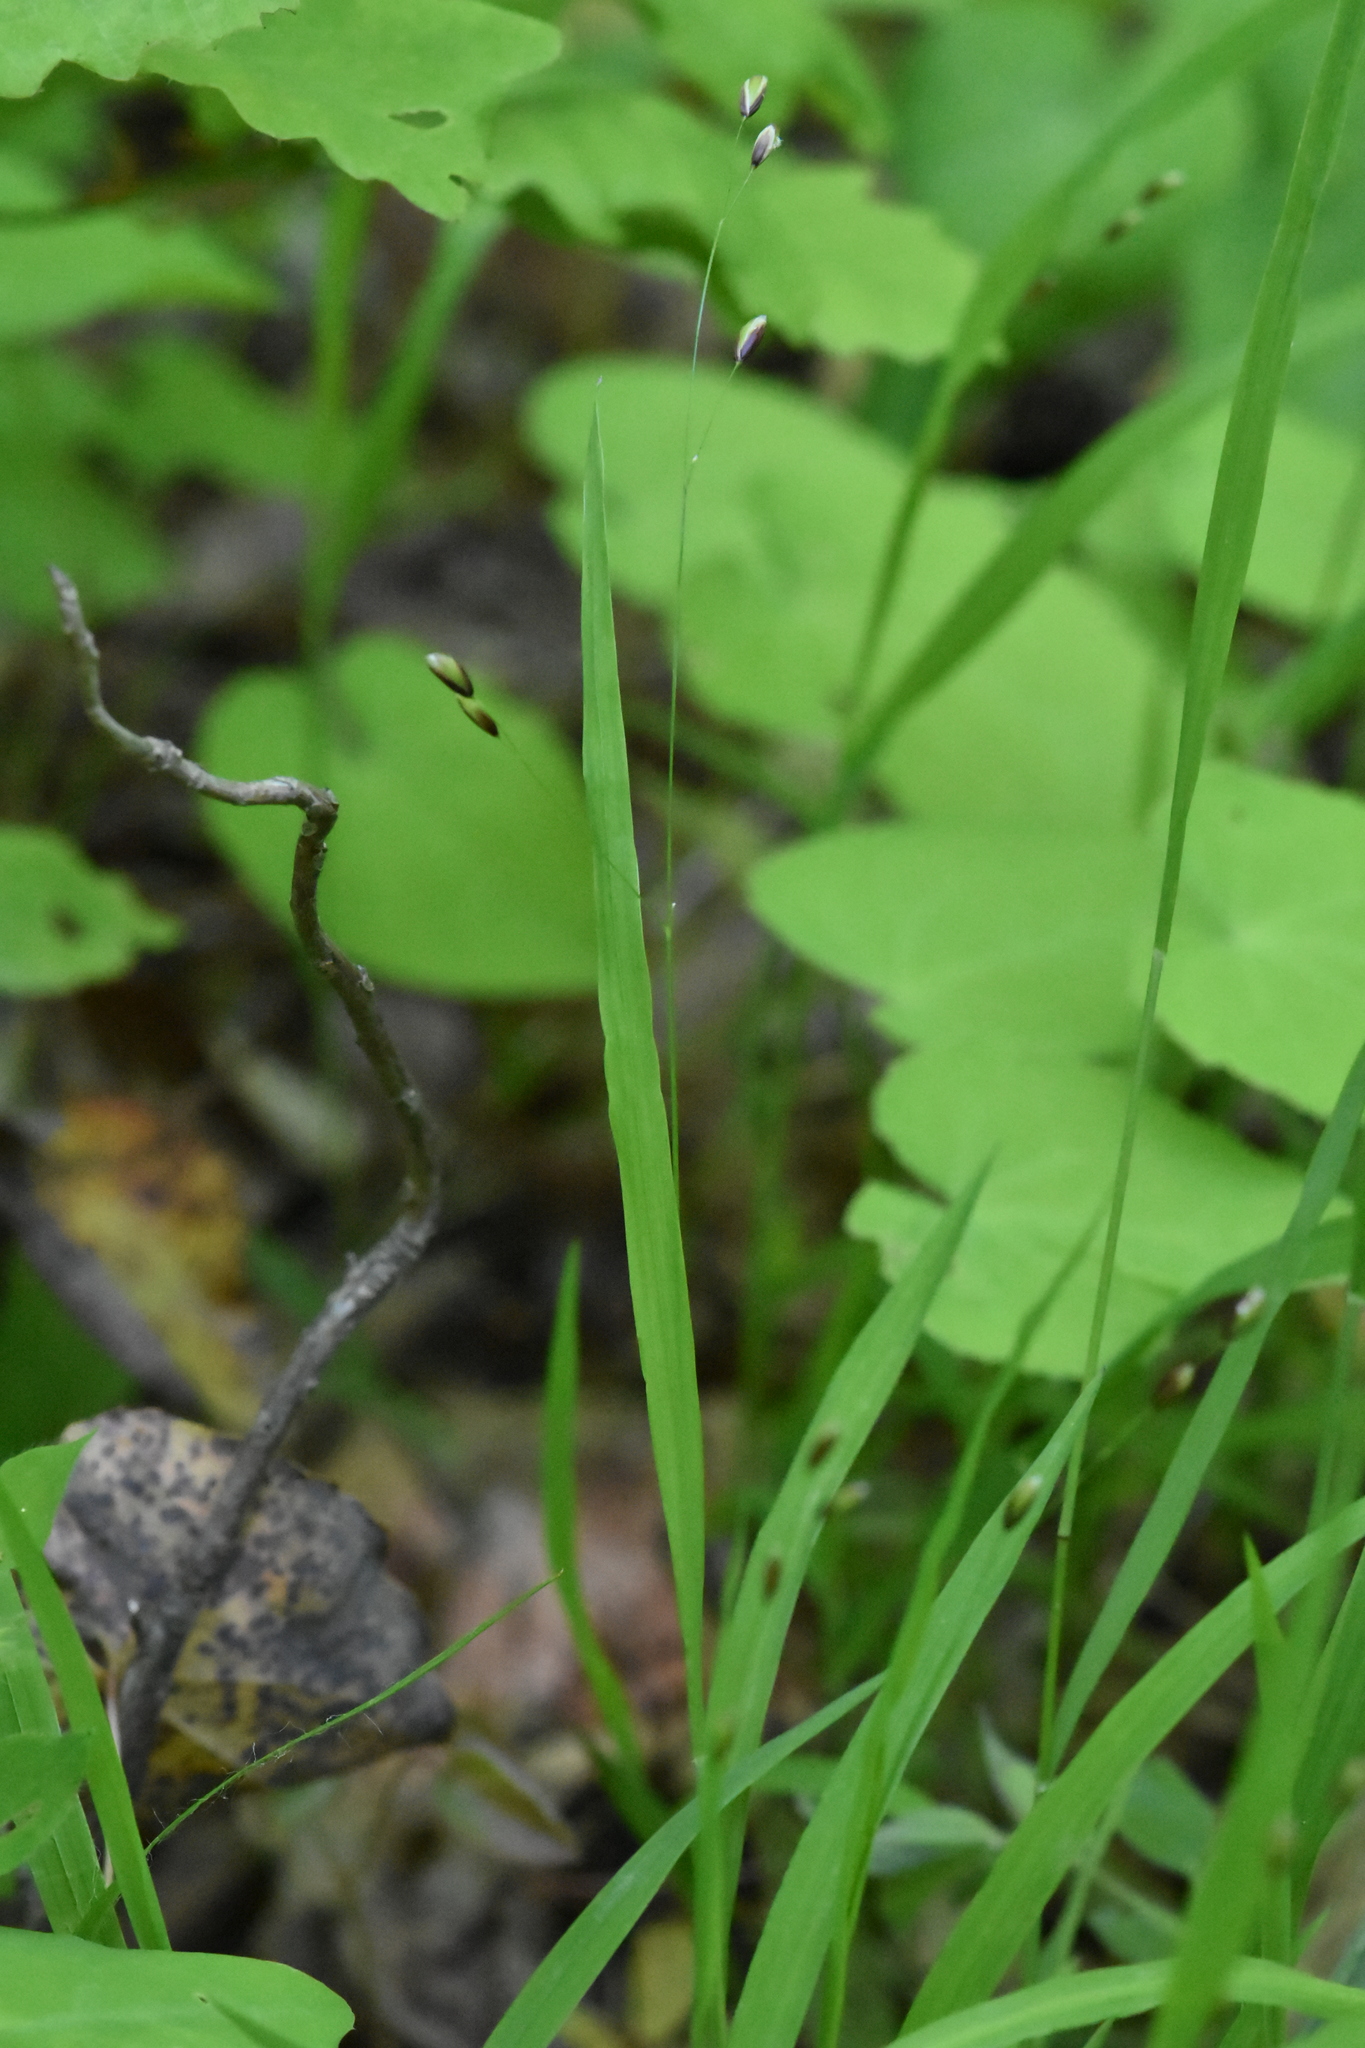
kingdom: Plantae
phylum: Tracheophyta
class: Liliopsida
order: Poales
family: Poaceae
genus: Melica
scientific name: Melica uniflora
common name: Wood melick
